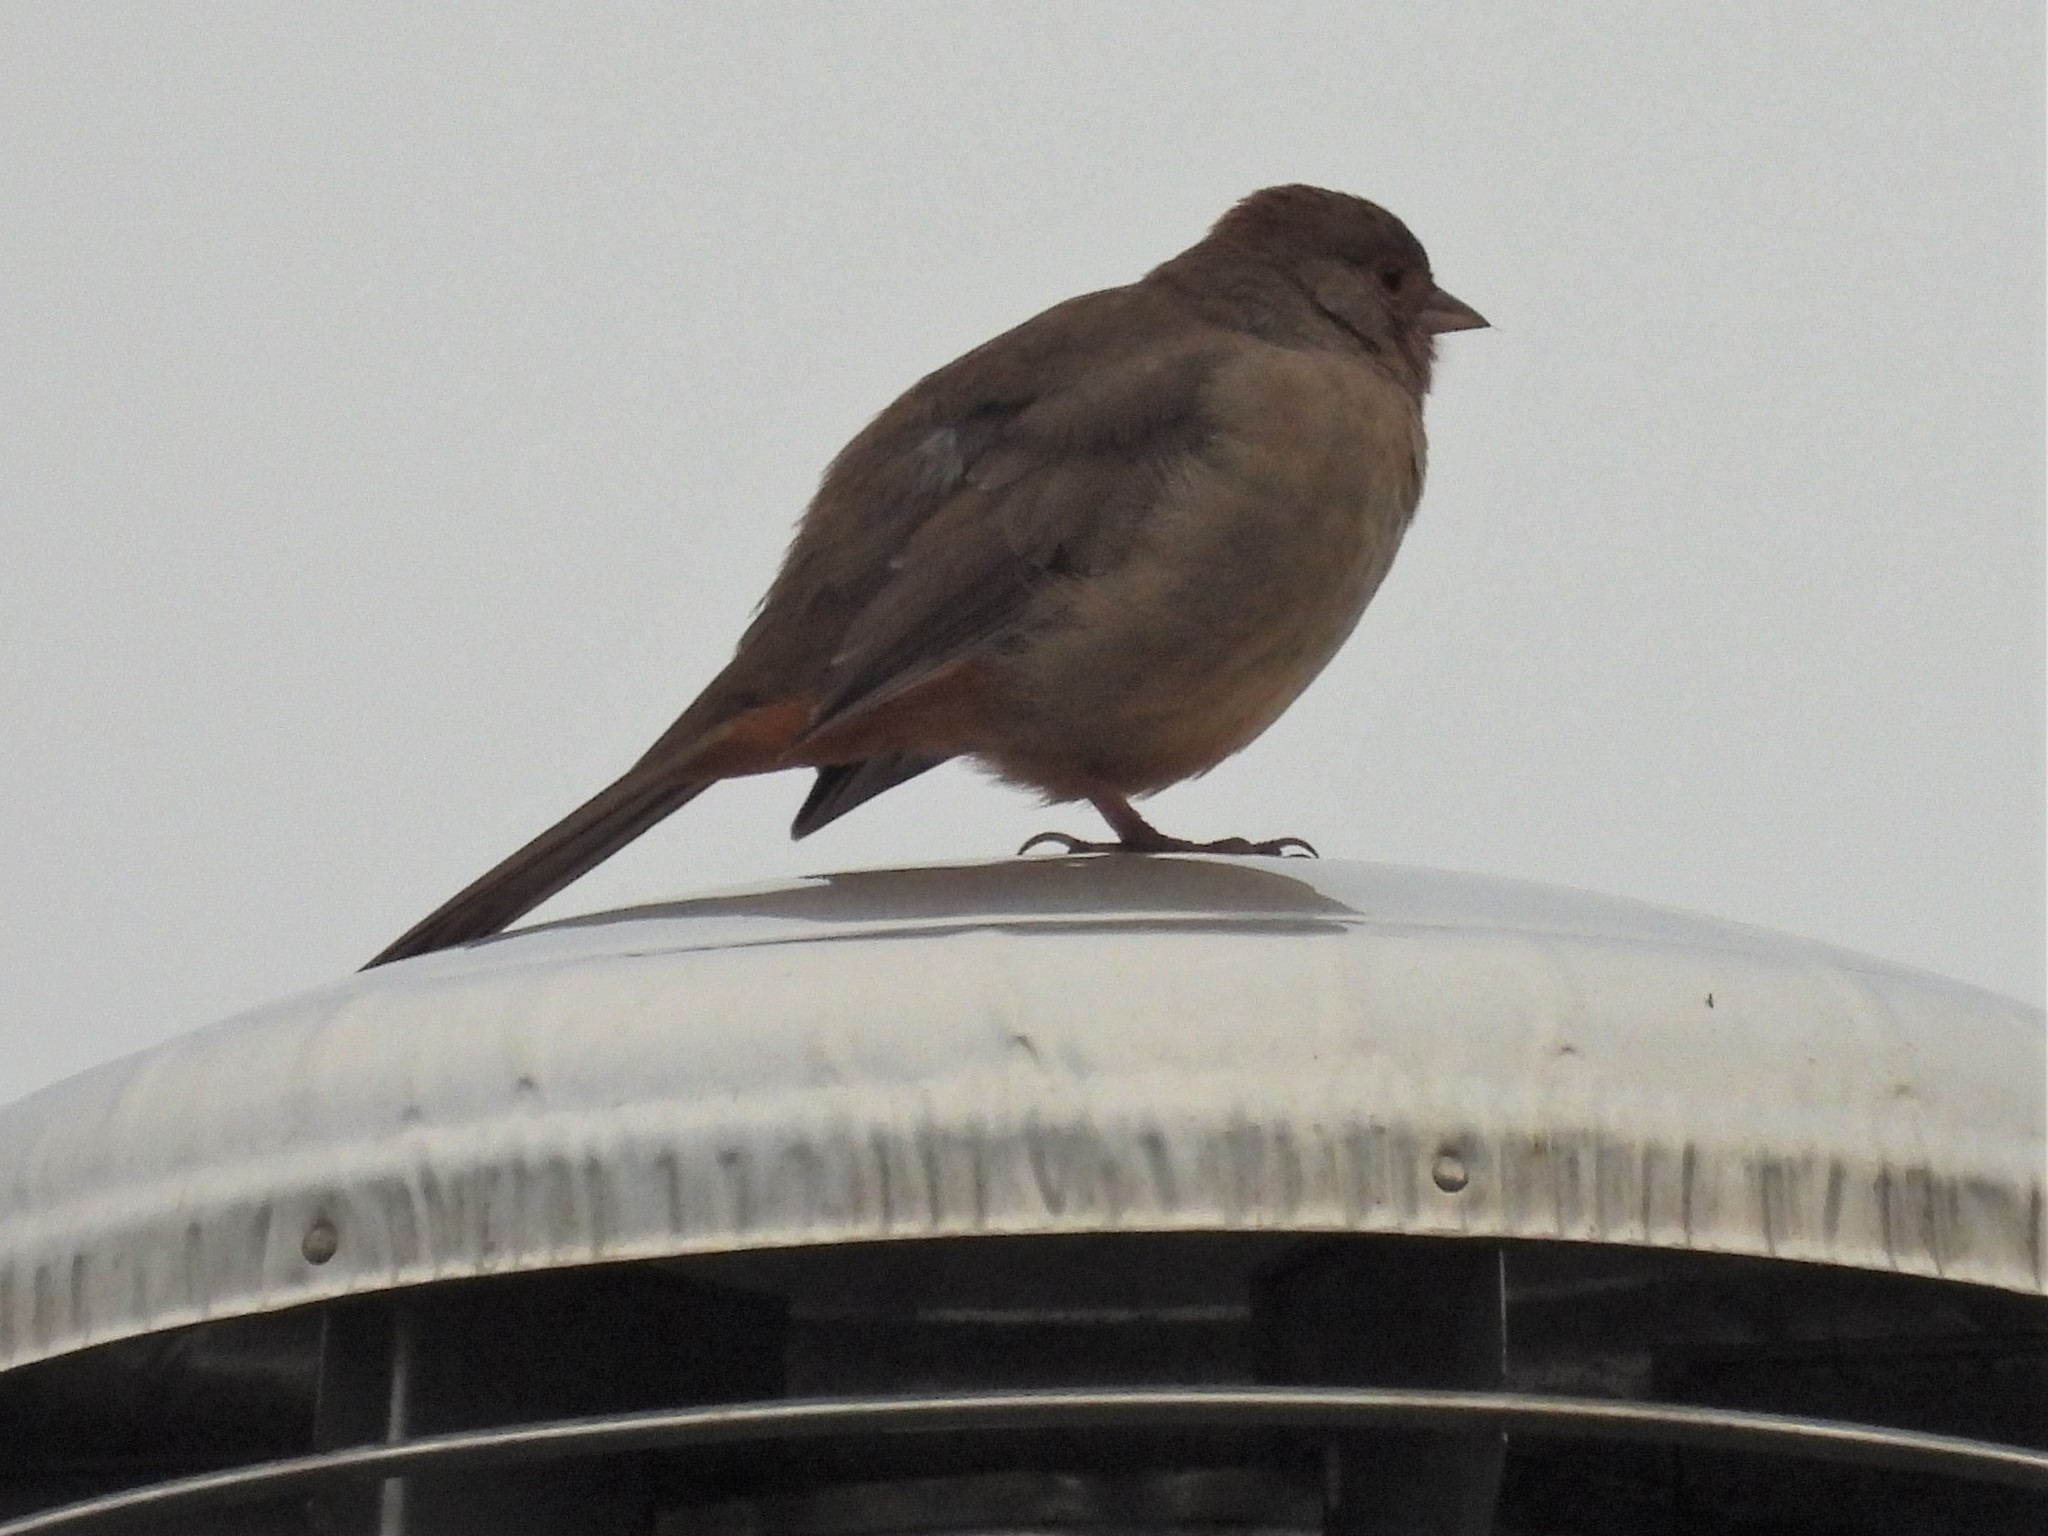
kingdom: Animalia
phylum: Chordata
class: Aves
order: Passeriformes
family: Passerellidae
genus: Melozone
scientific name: Melozone crissalis
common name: California towhee
